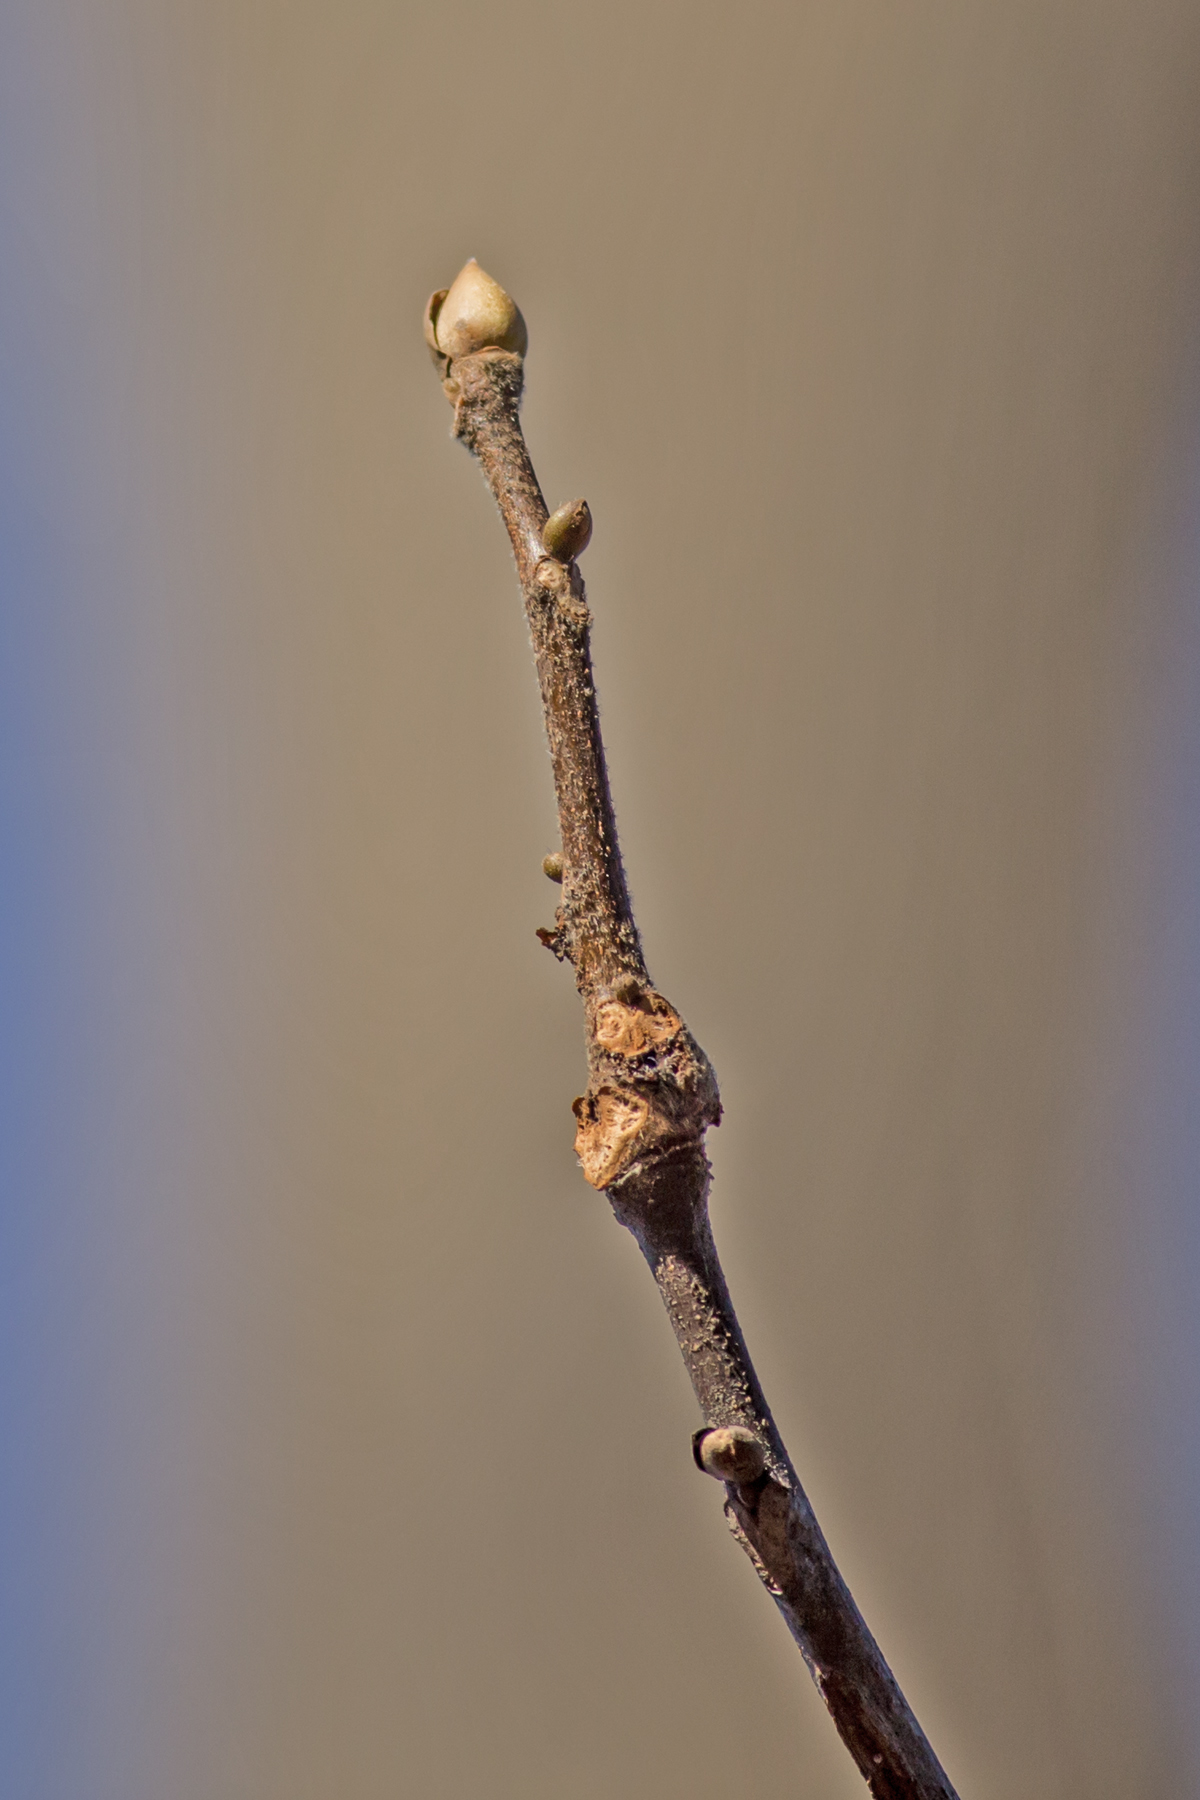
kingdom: Plantae
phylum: Tracheophyta
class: Magnoliopsida
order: Fagales
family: Juglandaceae
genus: Carya
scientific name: Carya alba
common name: Mockernut hickory
